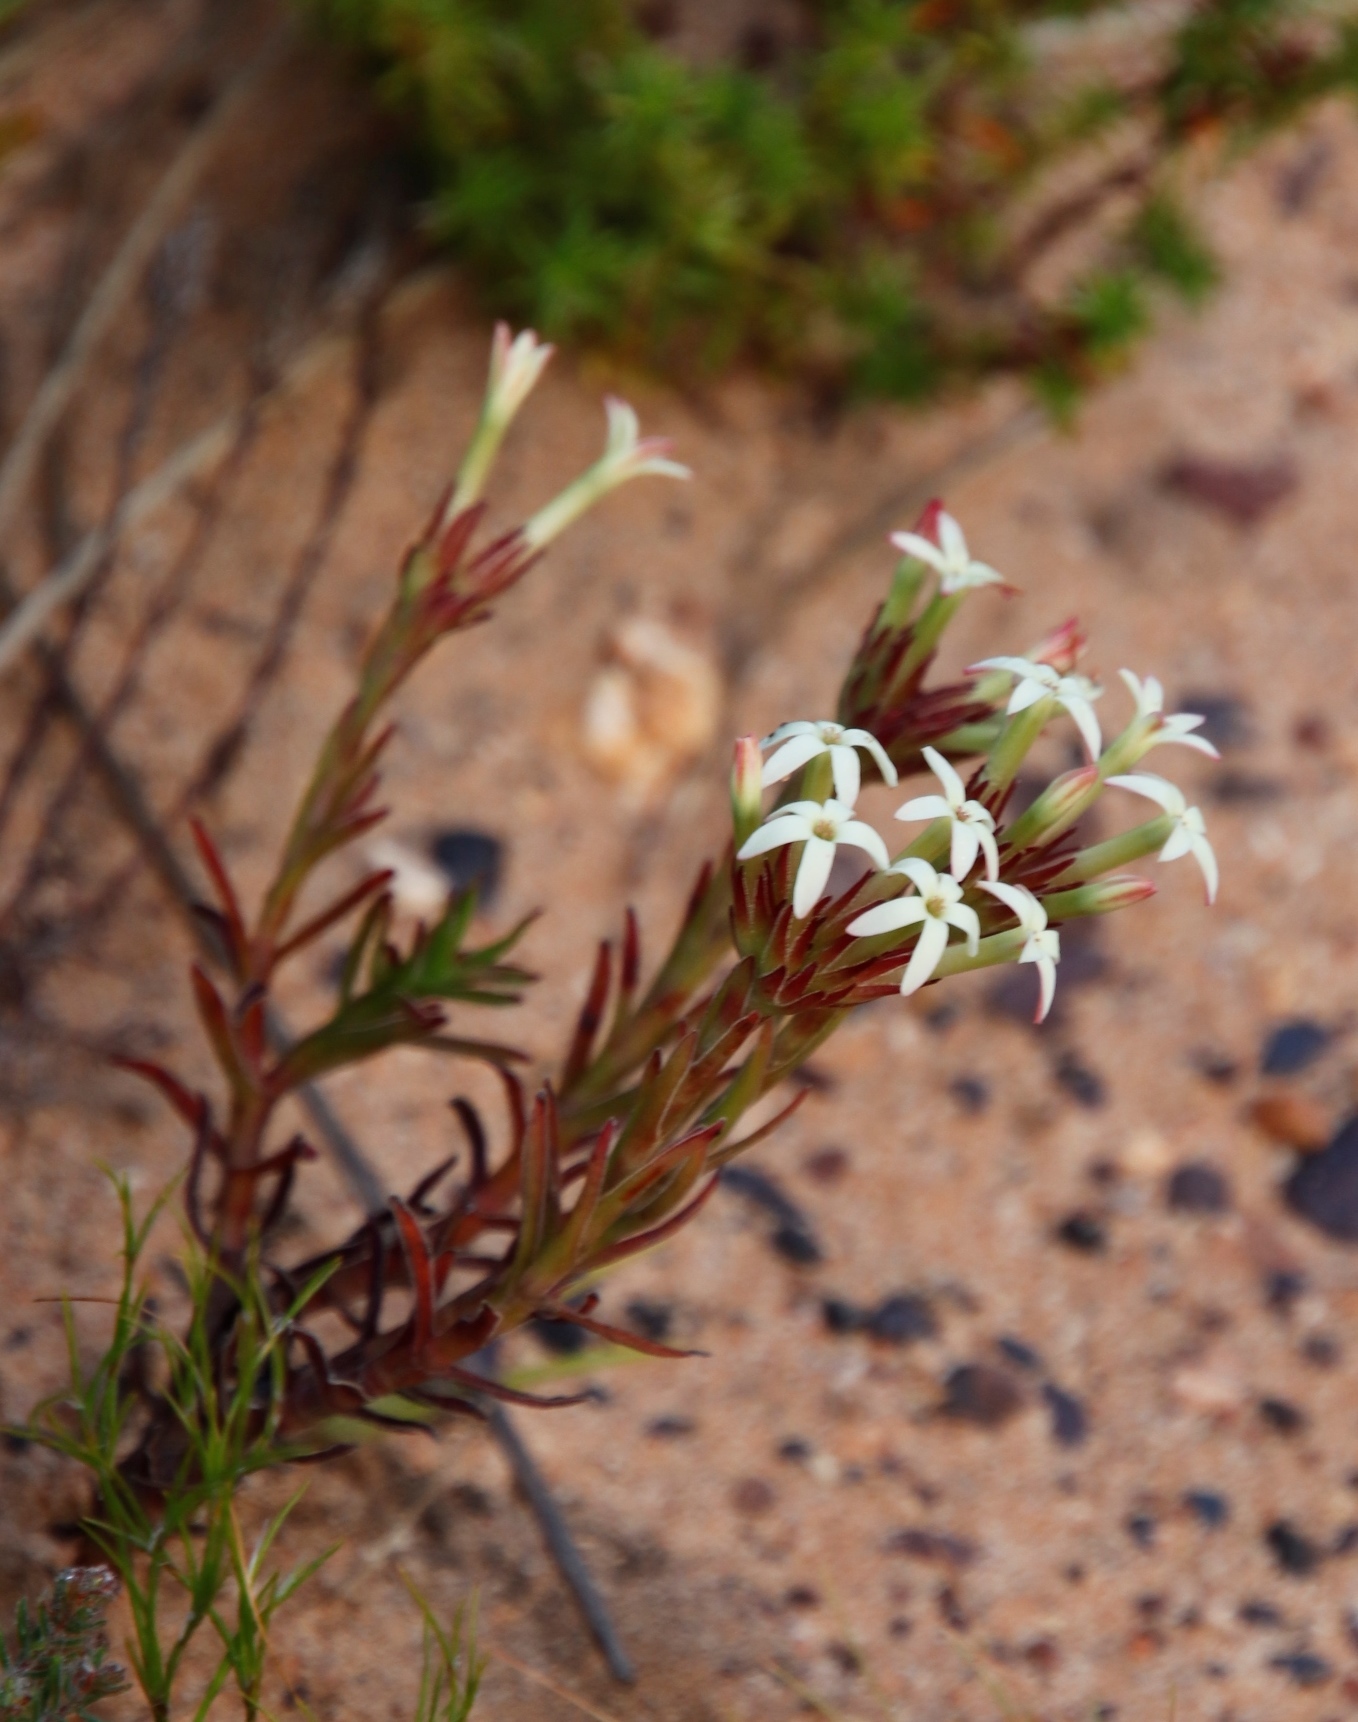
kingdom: Plantae
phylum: Tracheophyta
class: Magnoliopsida
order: Saxifragales
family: Crassulaceae
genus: Crassula
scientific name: Crassula fascicularis
